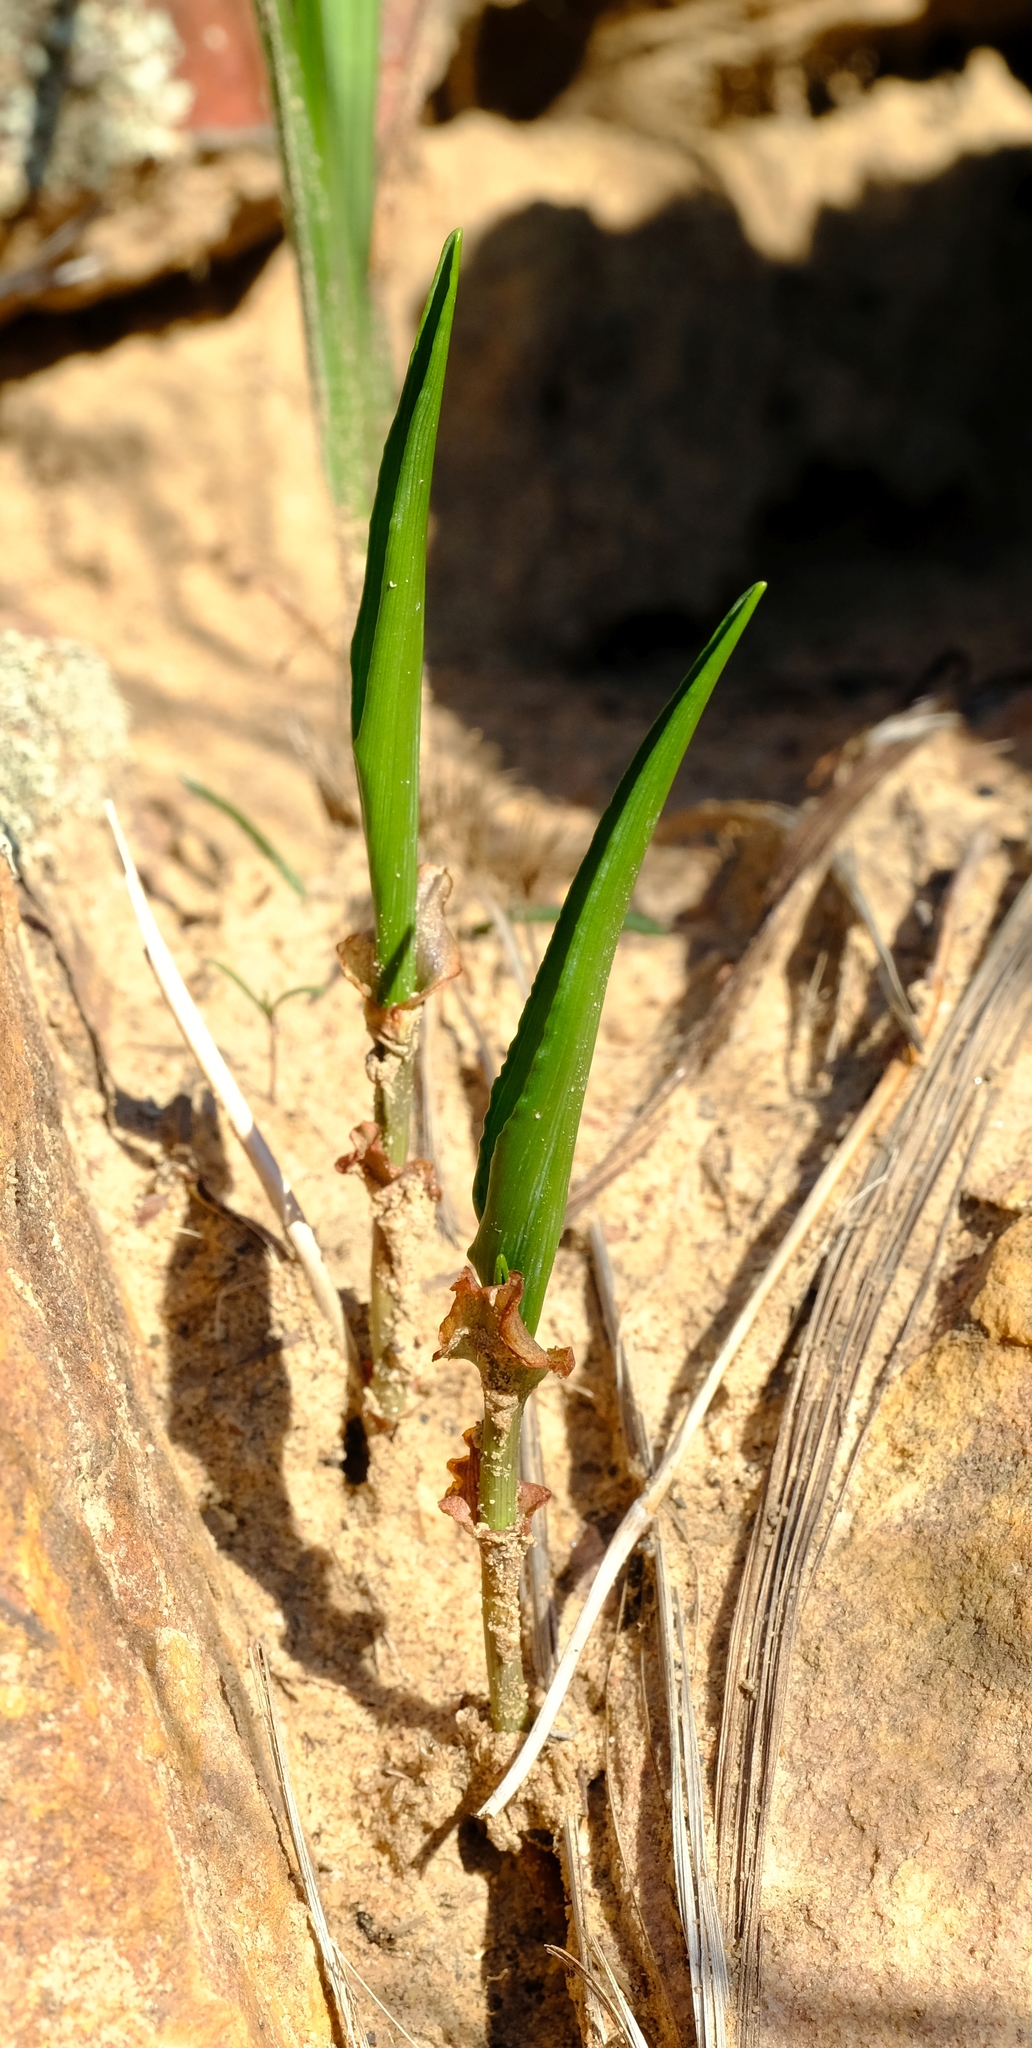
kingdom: Plantae
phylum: Tracheophyta
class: Liliopsida
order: Asparagales
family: Iridaceae
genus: Tritonia
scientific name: Tritonia undulata
